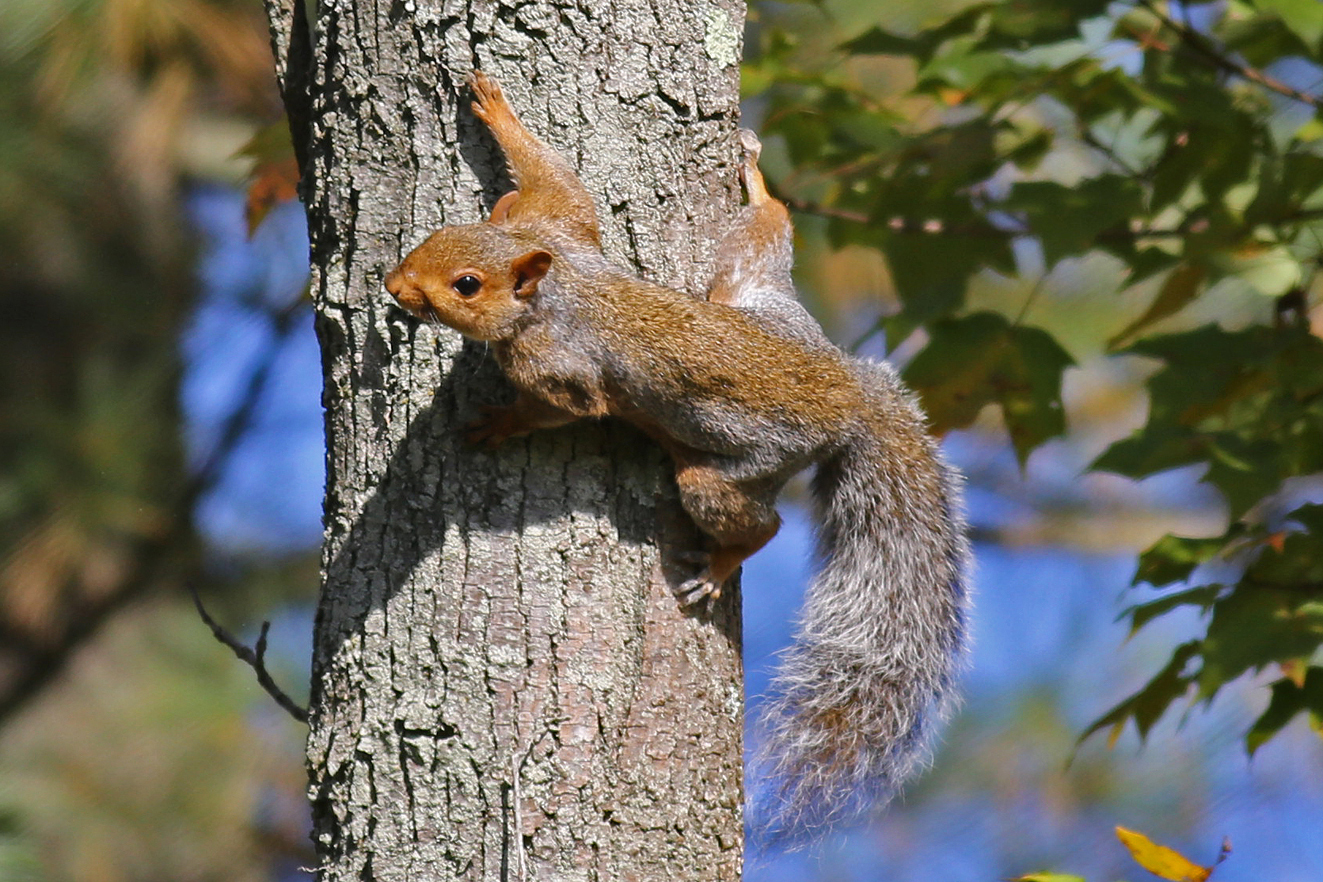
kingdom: Animalia
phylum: Chordata
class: Mammalia
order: Rodentia
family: Sciuridae
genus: Sciurus
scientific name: Sciurus carolinensis
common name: Eastern gray squirrel
